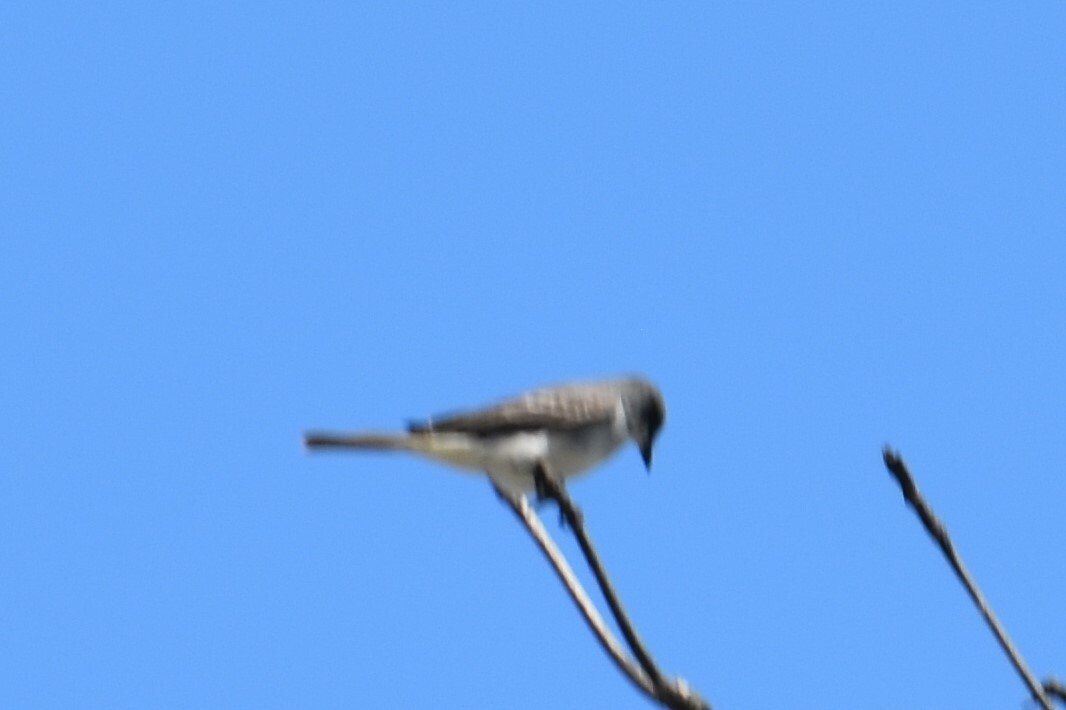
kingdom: Animalia
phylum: Chordata
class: Aves
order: Passeriformes
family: Tyrannidae
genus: Tyrannus
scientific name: Tyrannus dominicensis
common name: Gray kingbird
